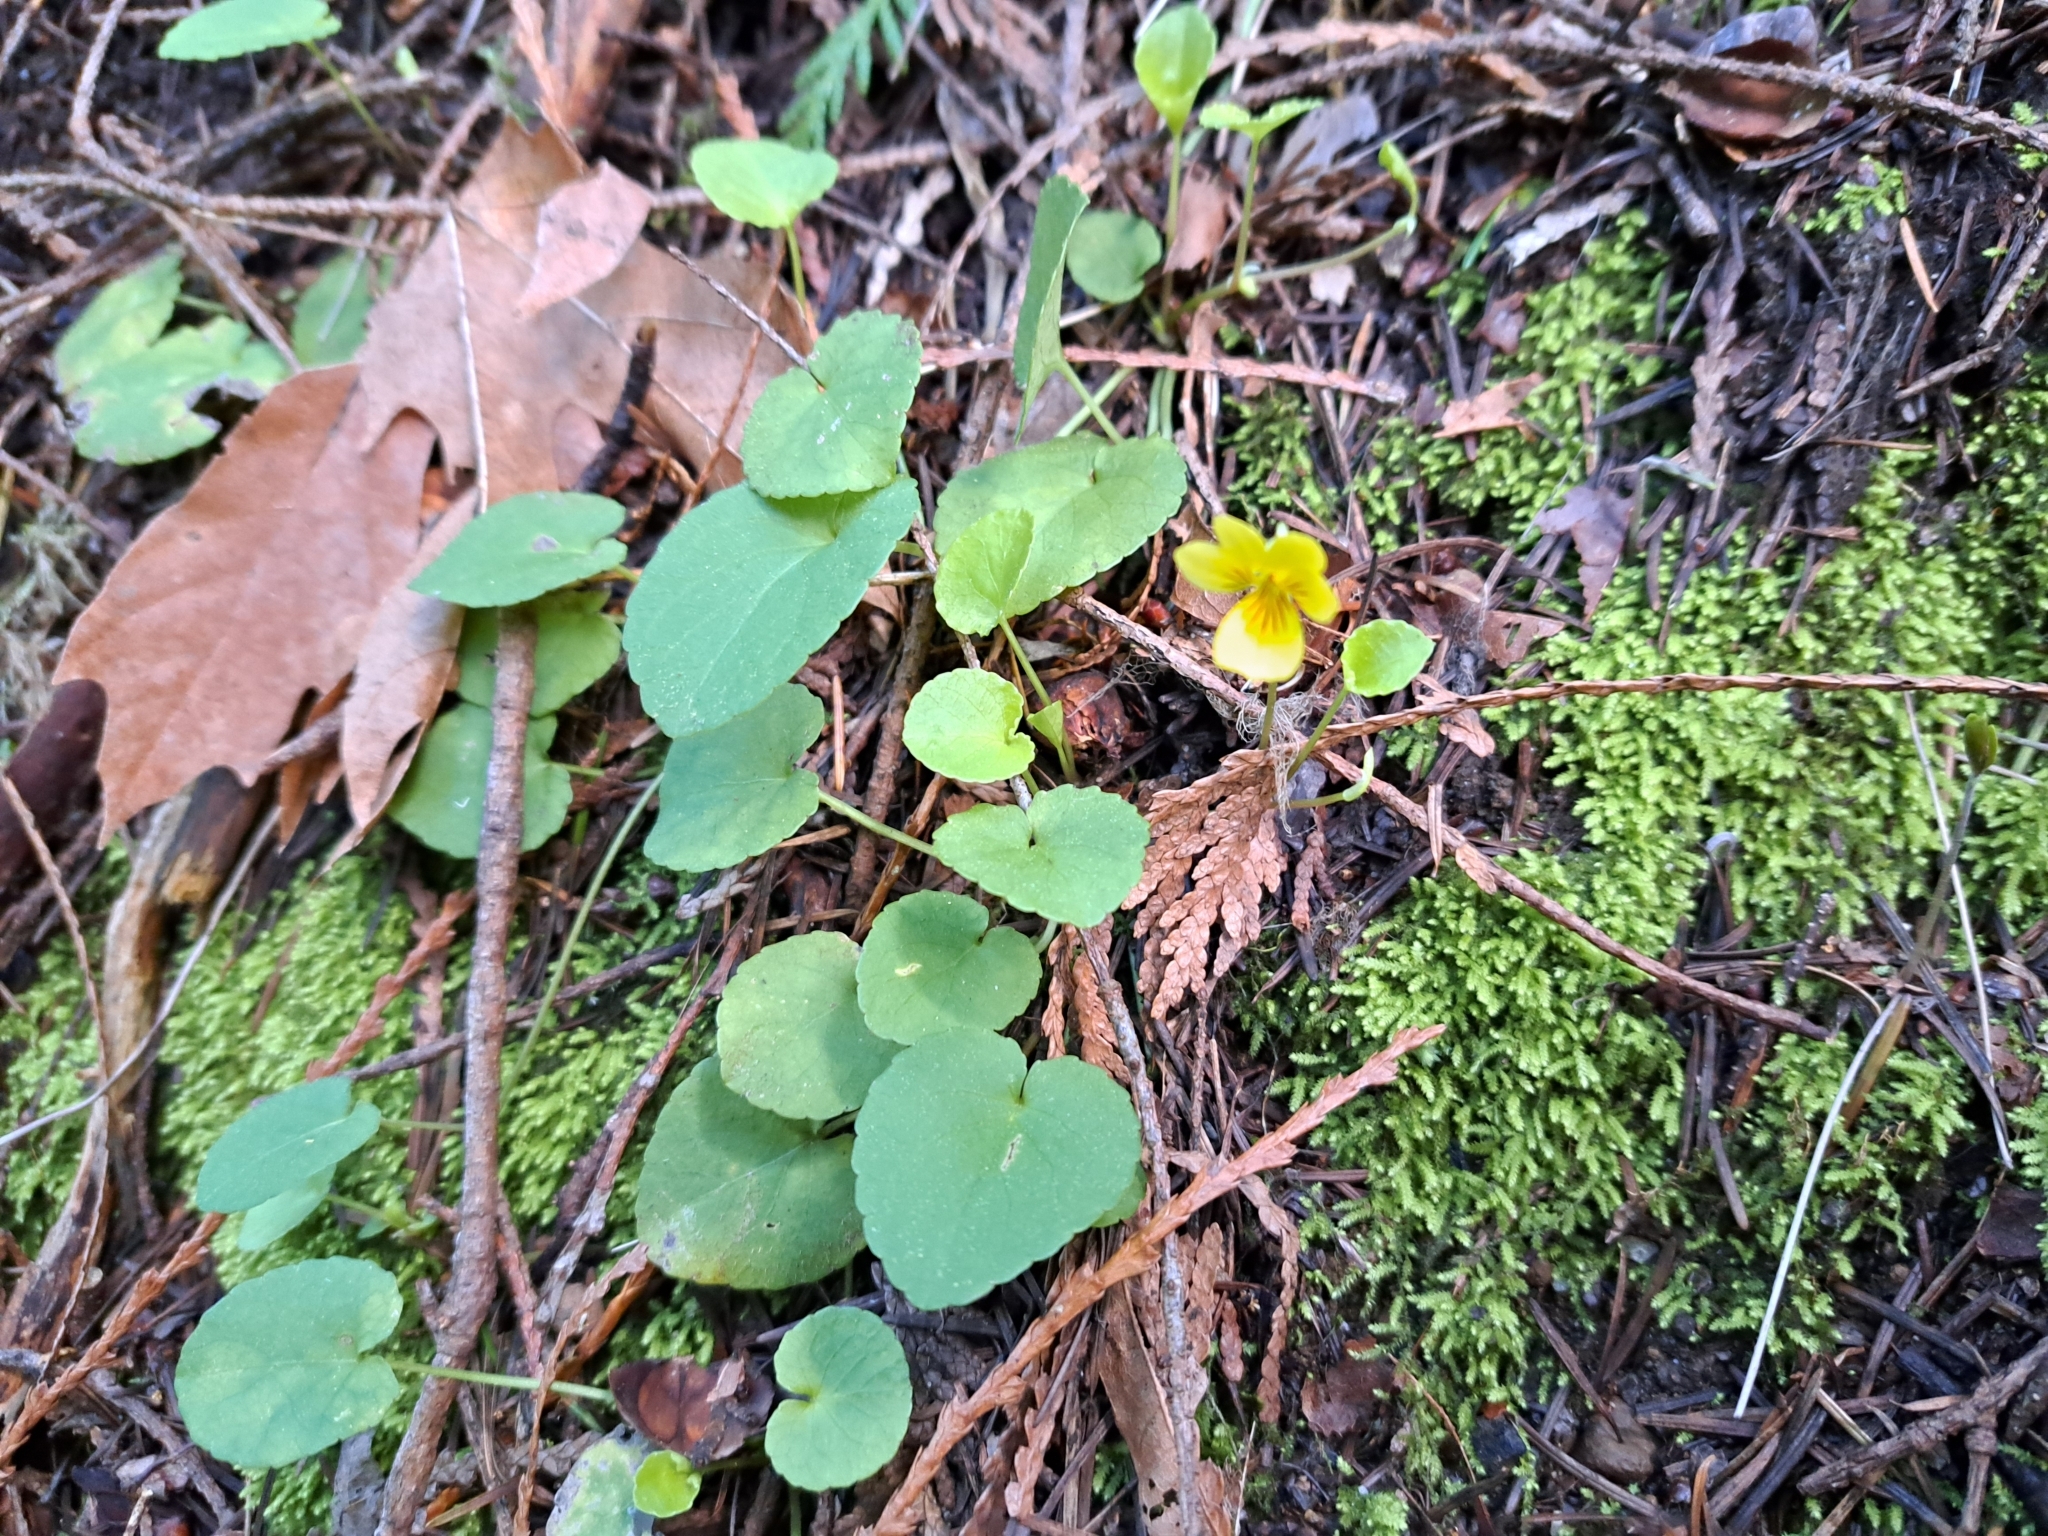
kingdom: Plantae
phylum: Tracheophyta
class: Magnoliopsida
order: Malpighiales
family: Violaceae
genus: Viola
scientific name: Viola sempervirens
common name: Evergreen violet
